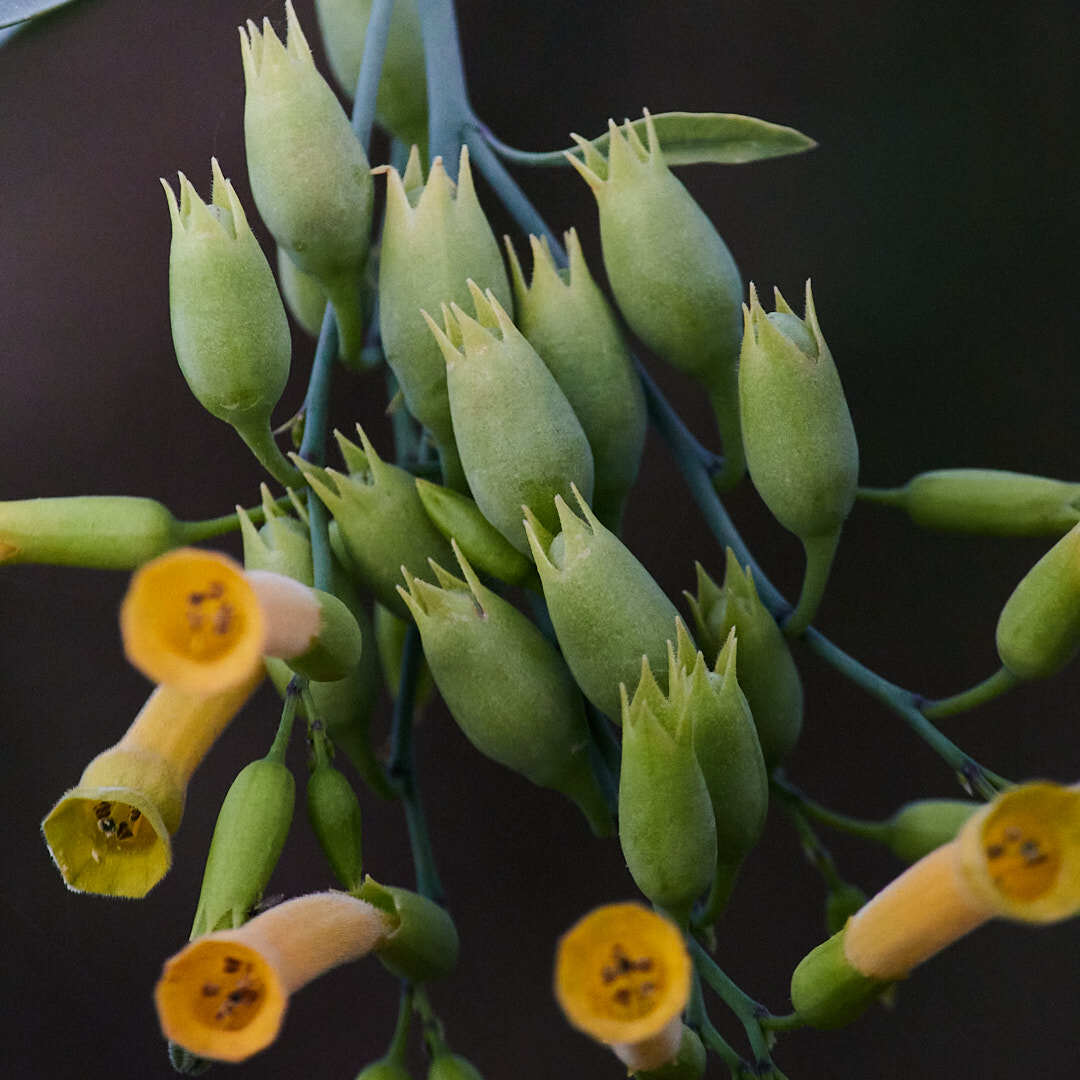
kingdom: Plantae
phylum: Tracheophyta
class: Magnoliopsida
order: Solanales
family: Solanaceae
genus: Nicotiana
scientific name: Nicotiana glauca
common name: Tree tobacco
